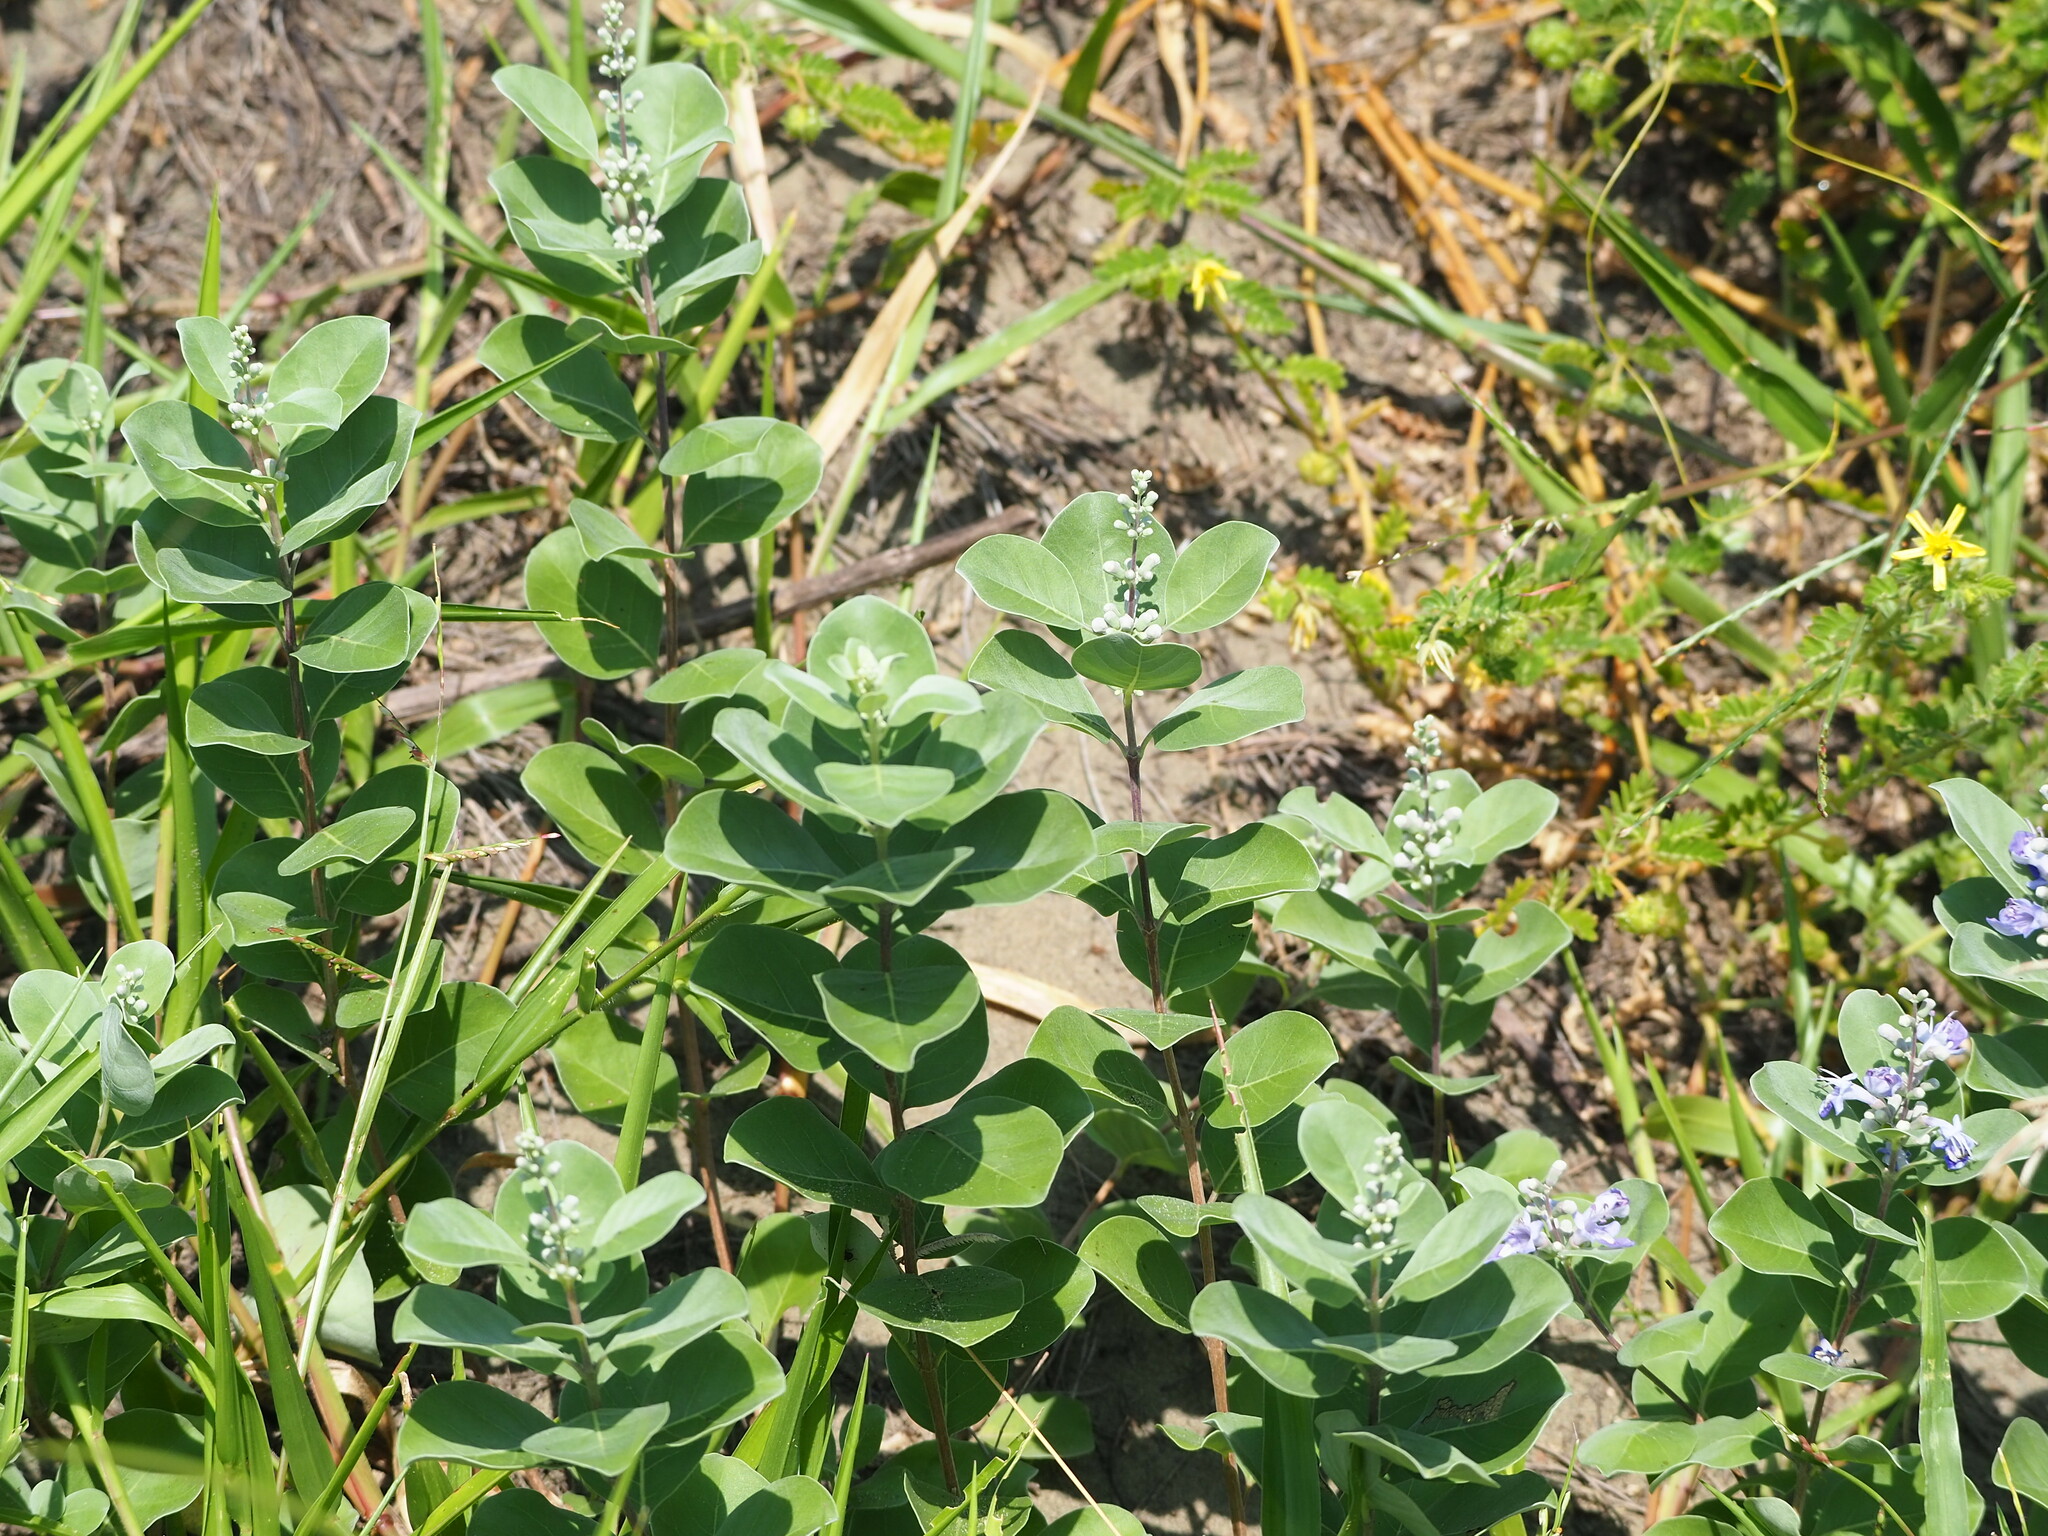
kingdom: Plantae
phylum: Tracheophyta
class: Magnoliopsida
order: Lamiales
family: Lamiaceae
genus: Vitex
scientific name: Vitex rotundifolia
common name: Beach vitex
